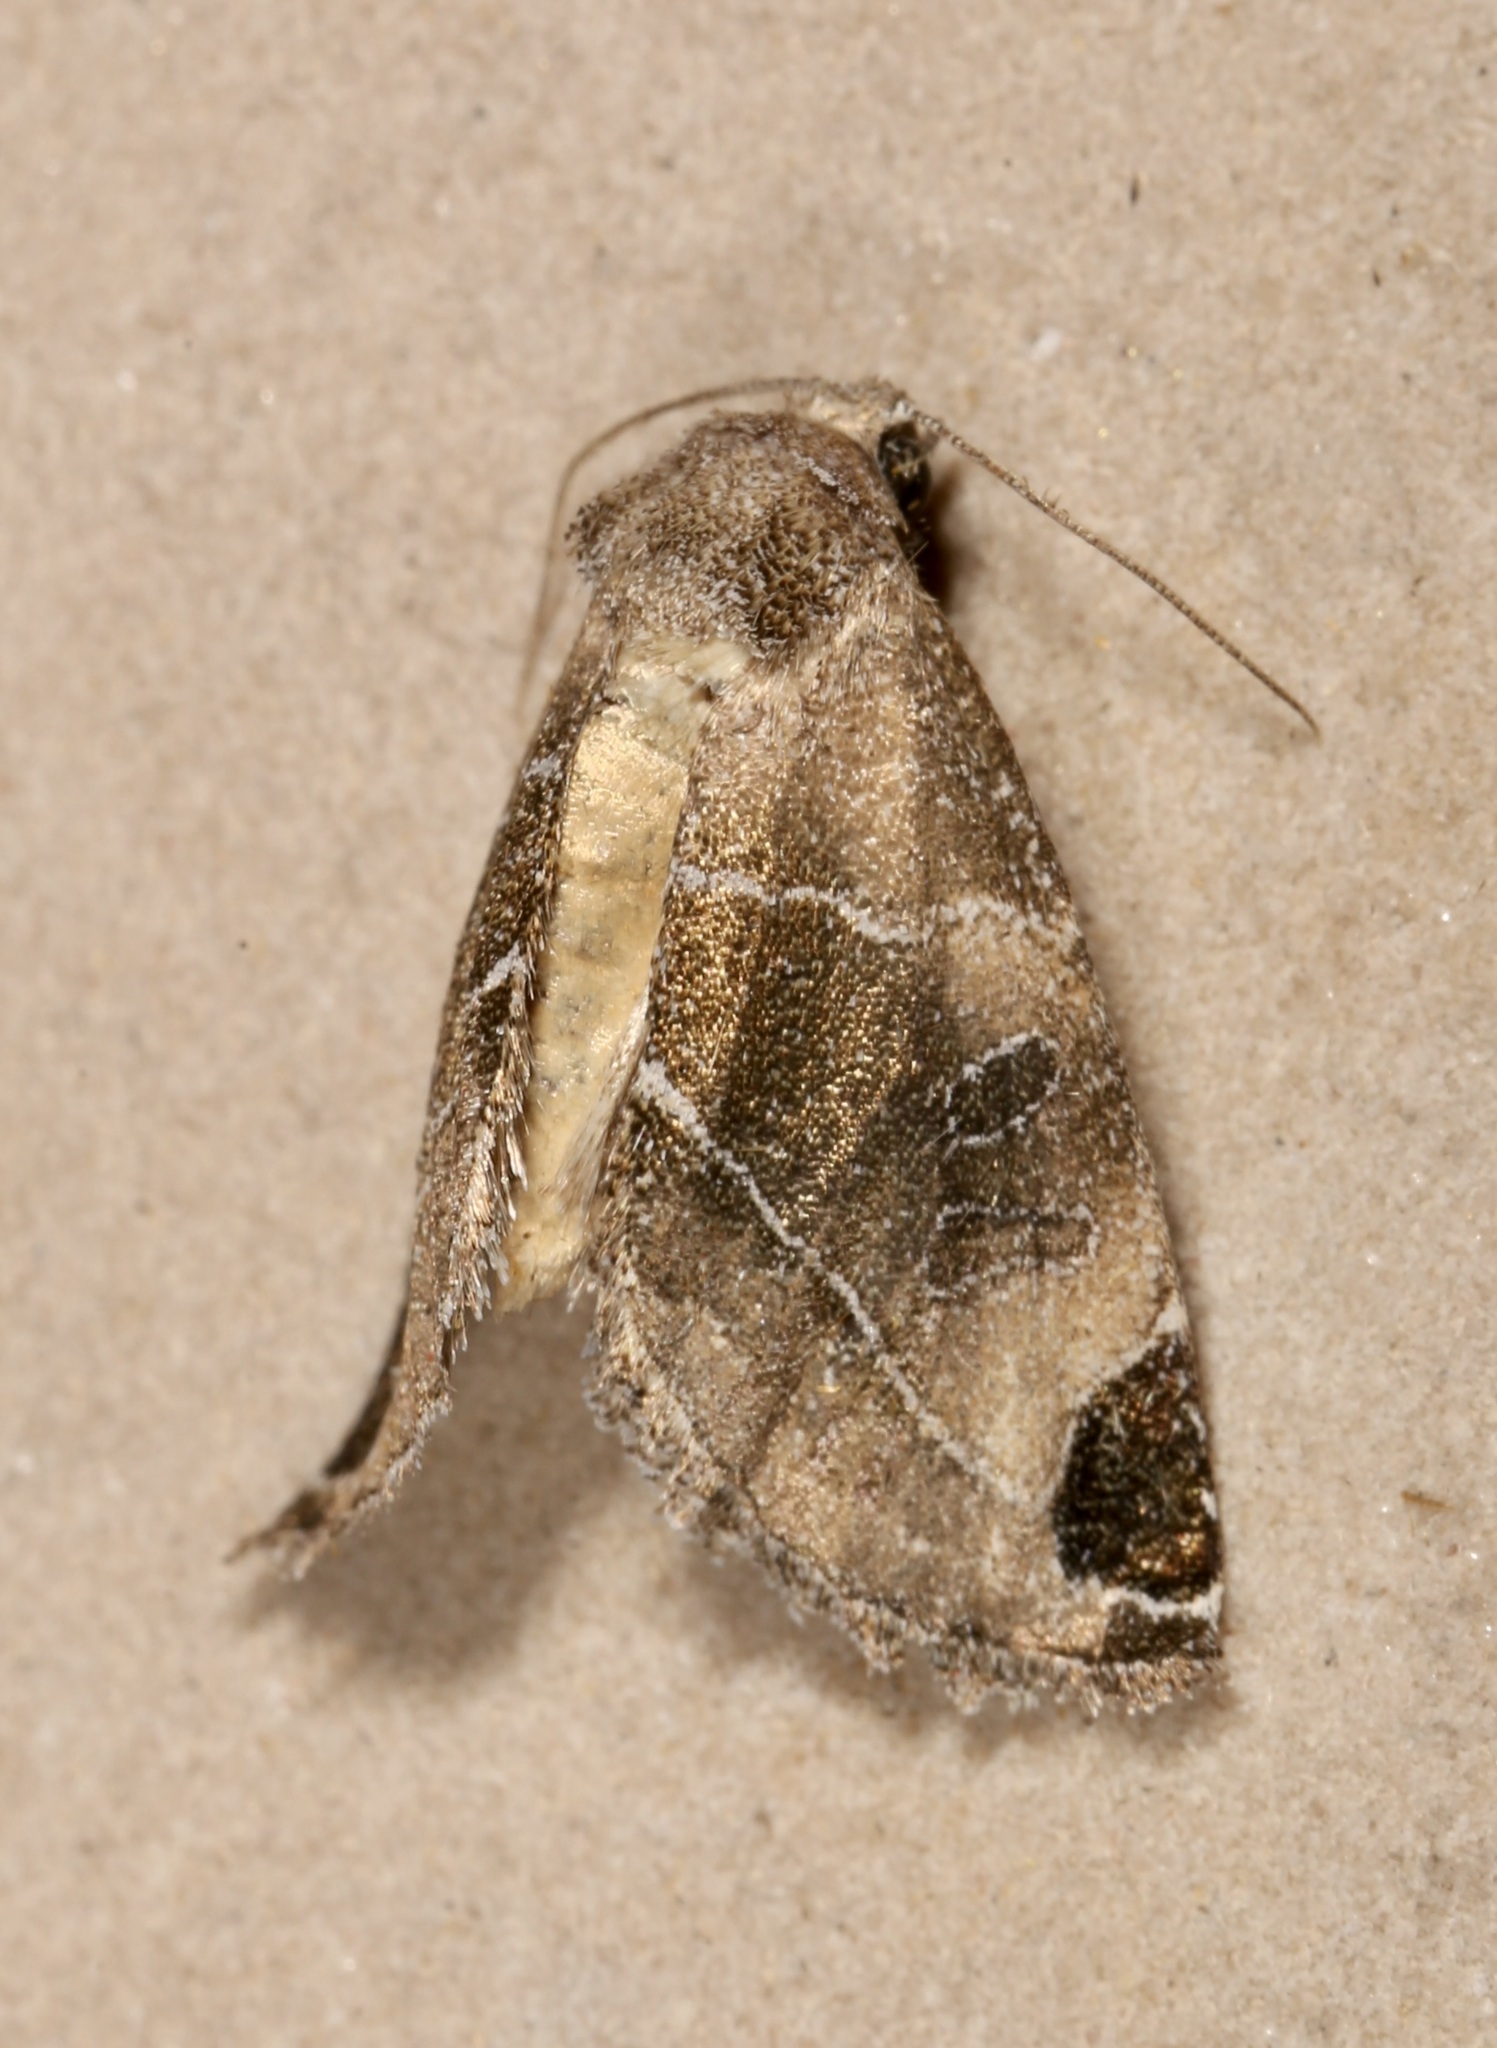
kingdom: Animalia
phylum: Arthropoda
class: Insecta
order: Lepidoptera
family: Noctuidae
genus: Plagiomimicus
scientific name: Plagiomimicus curiosum
